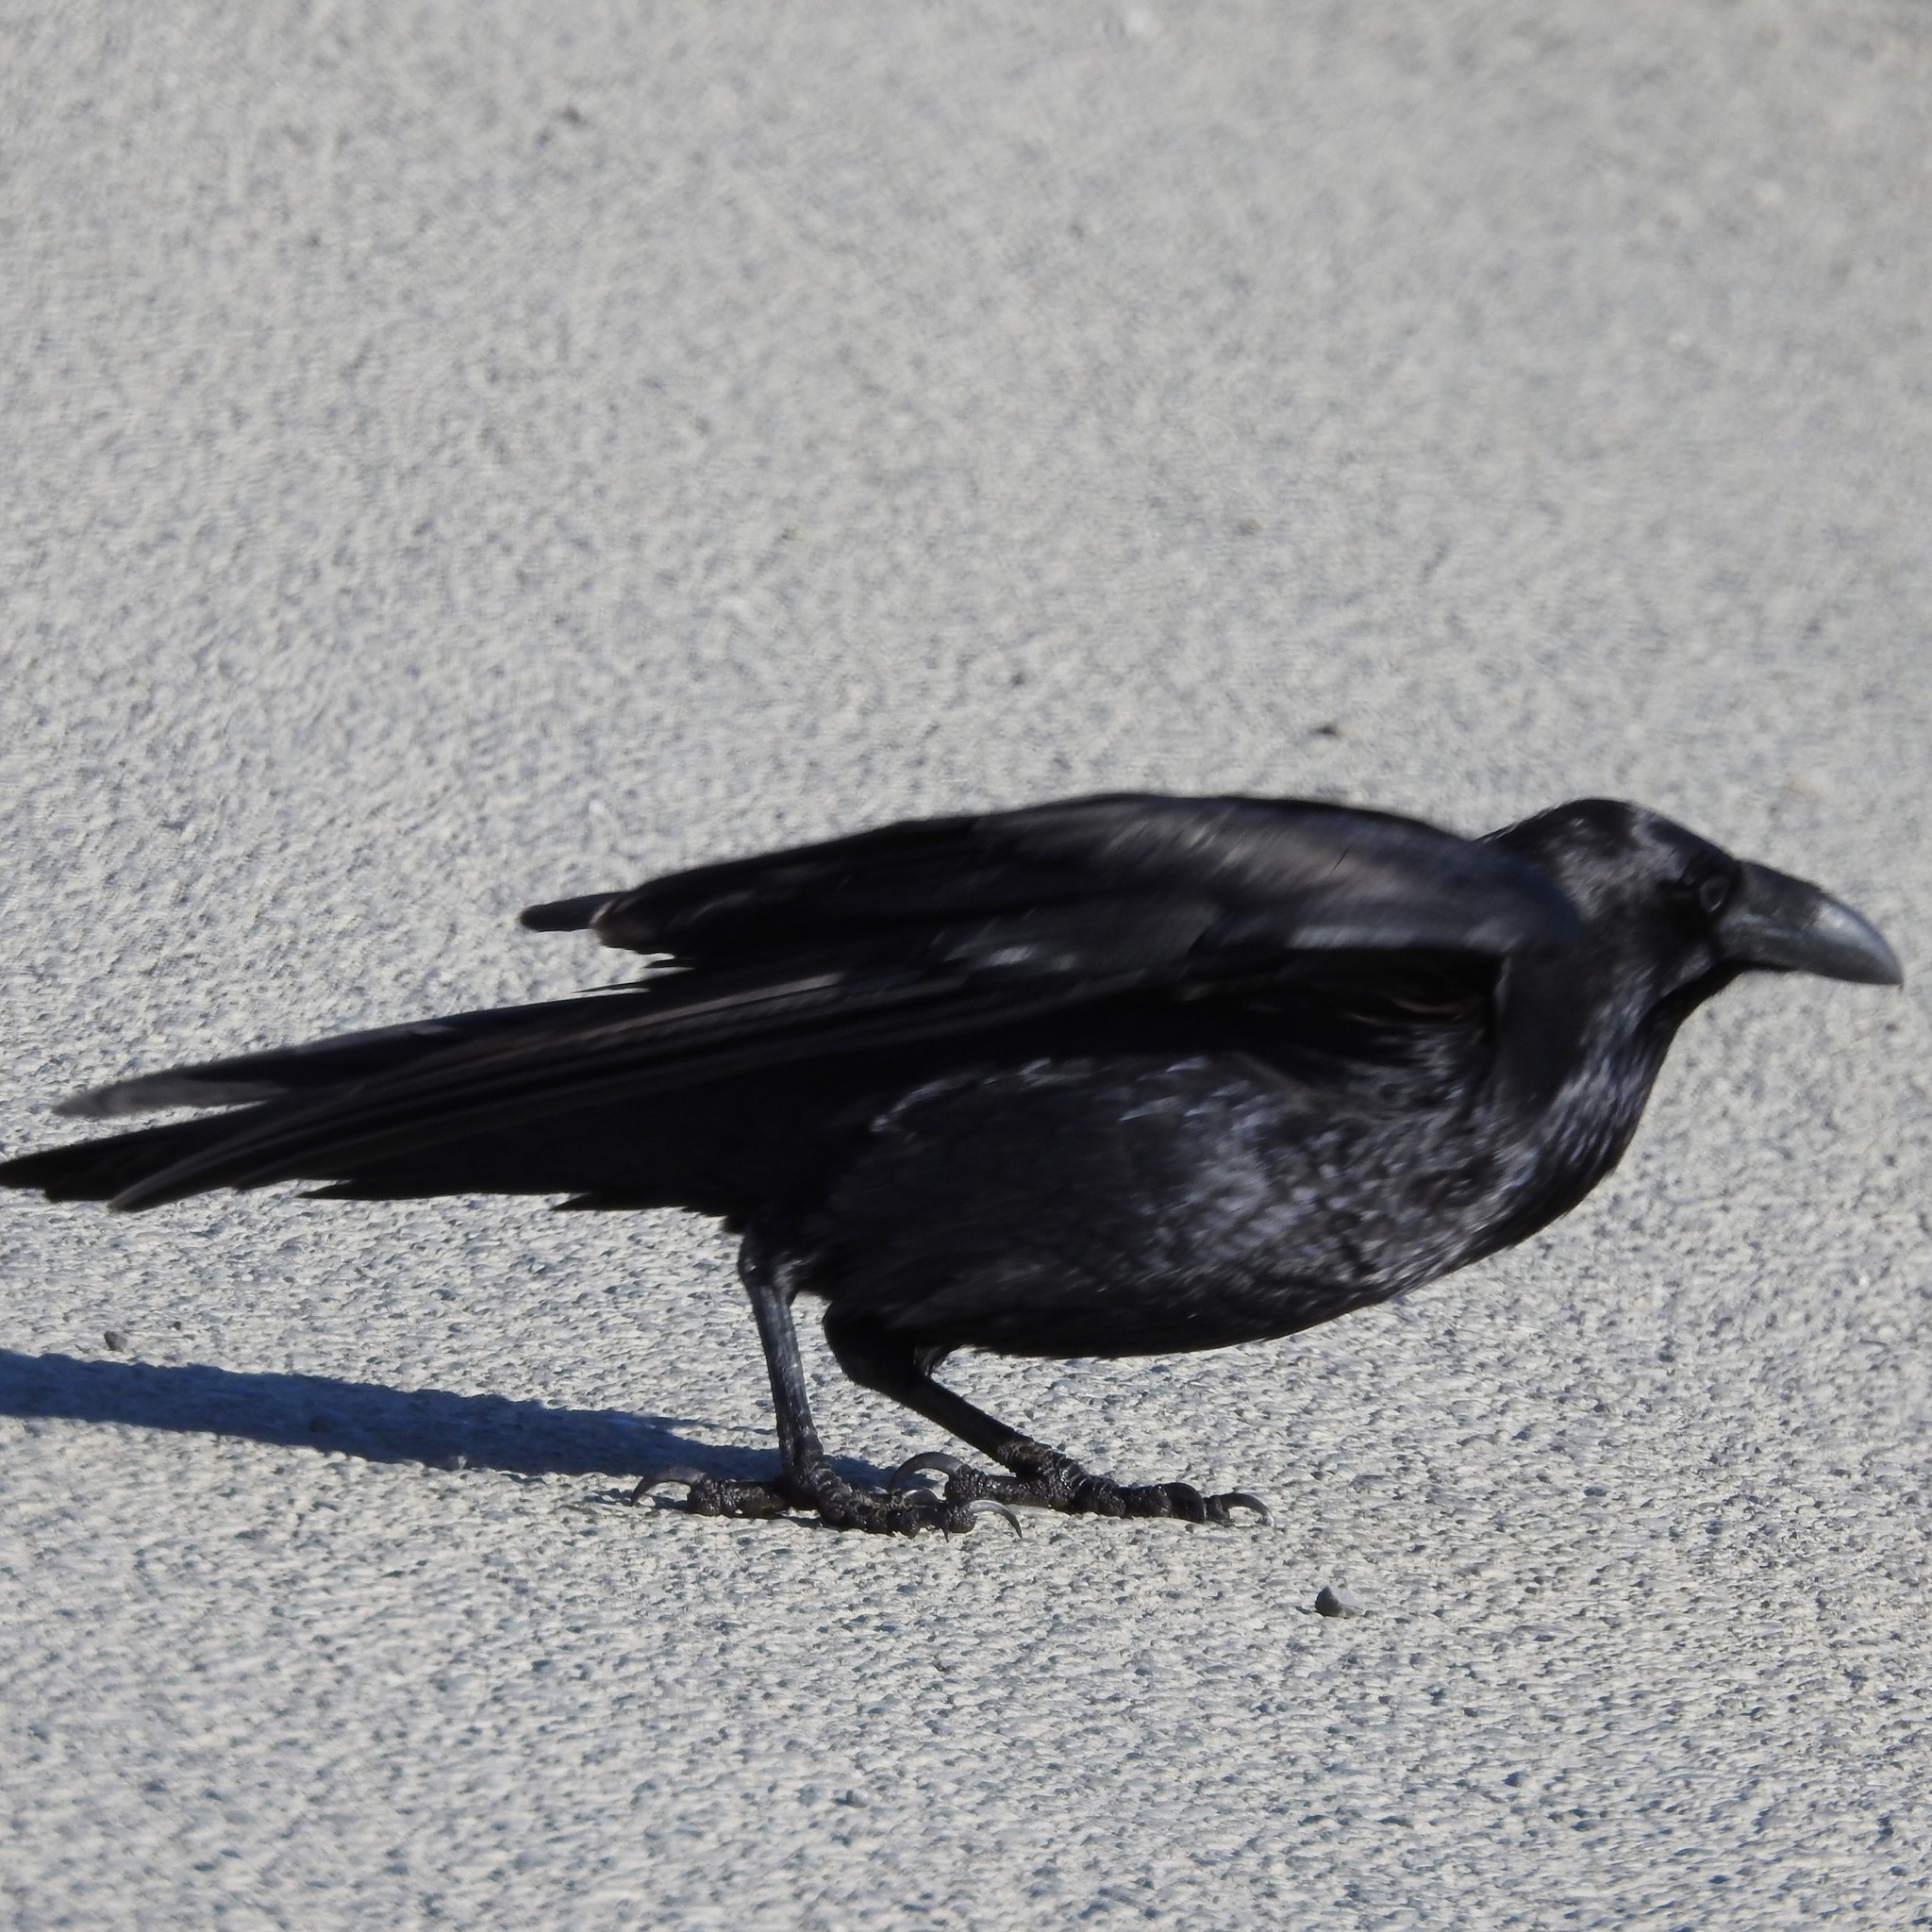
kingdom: Animalia
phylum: Chordata
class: Aves
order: Passeriformes
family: Corvidae
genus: Corvus
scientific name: Corvus corax
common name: Common raven
